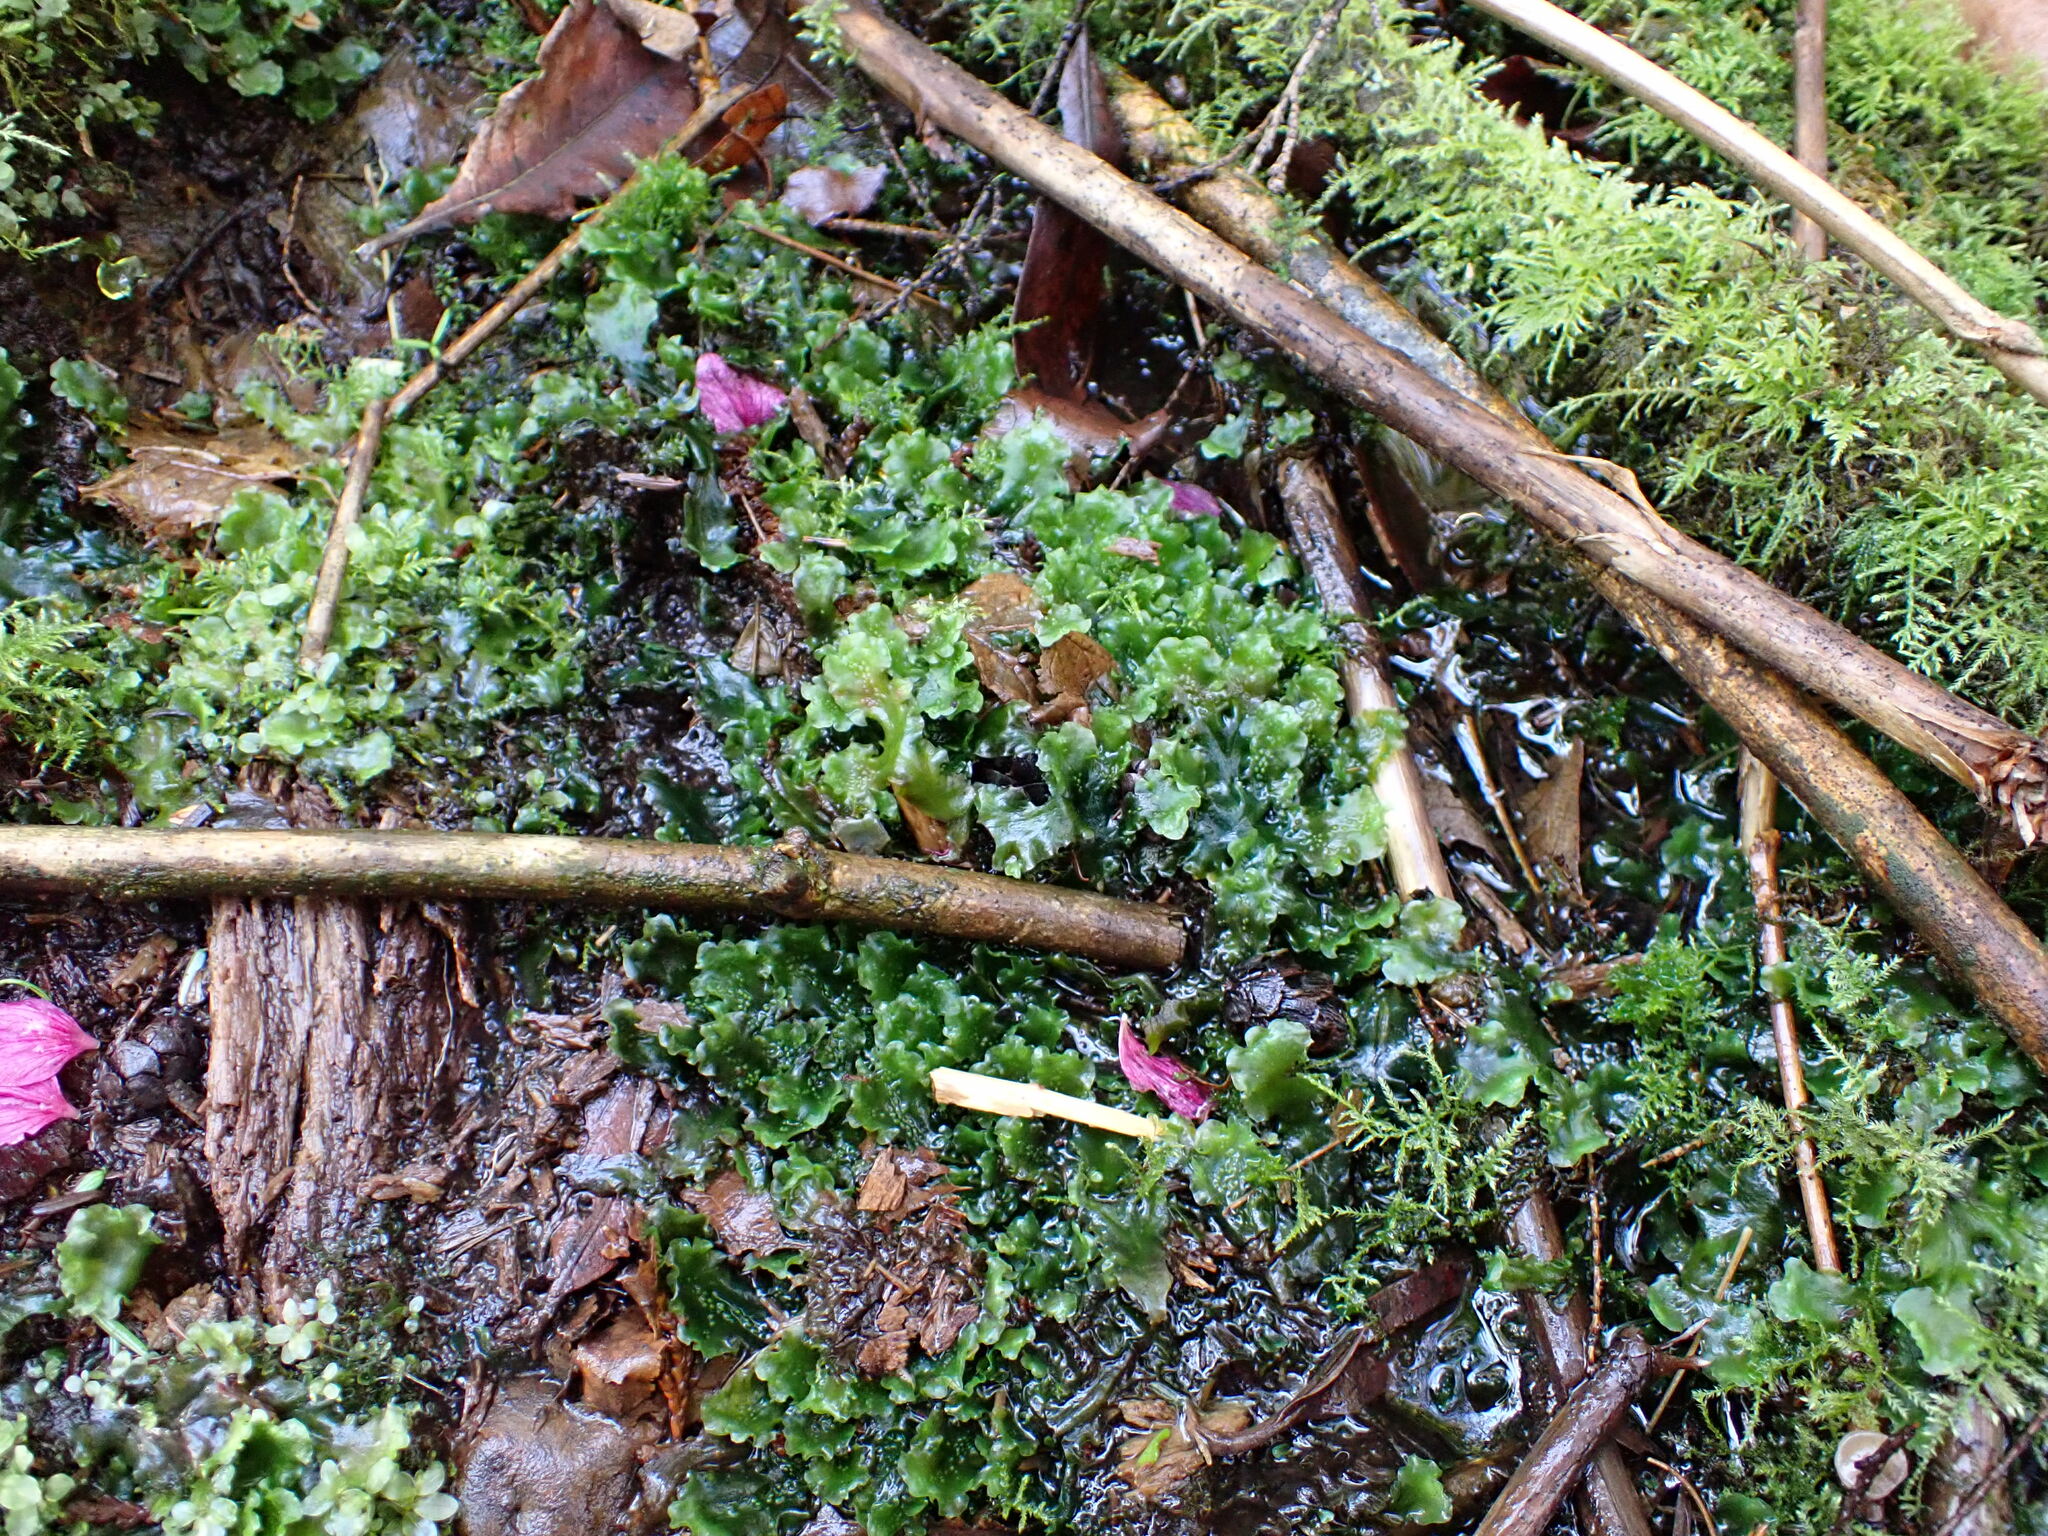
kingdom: Plantae
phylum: Marchantiophyta
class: Jungermanniopsida
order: Pelliales
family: Pelliaceae
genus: Pellia
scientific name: Pellia neesiana
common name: Nees  pellia
